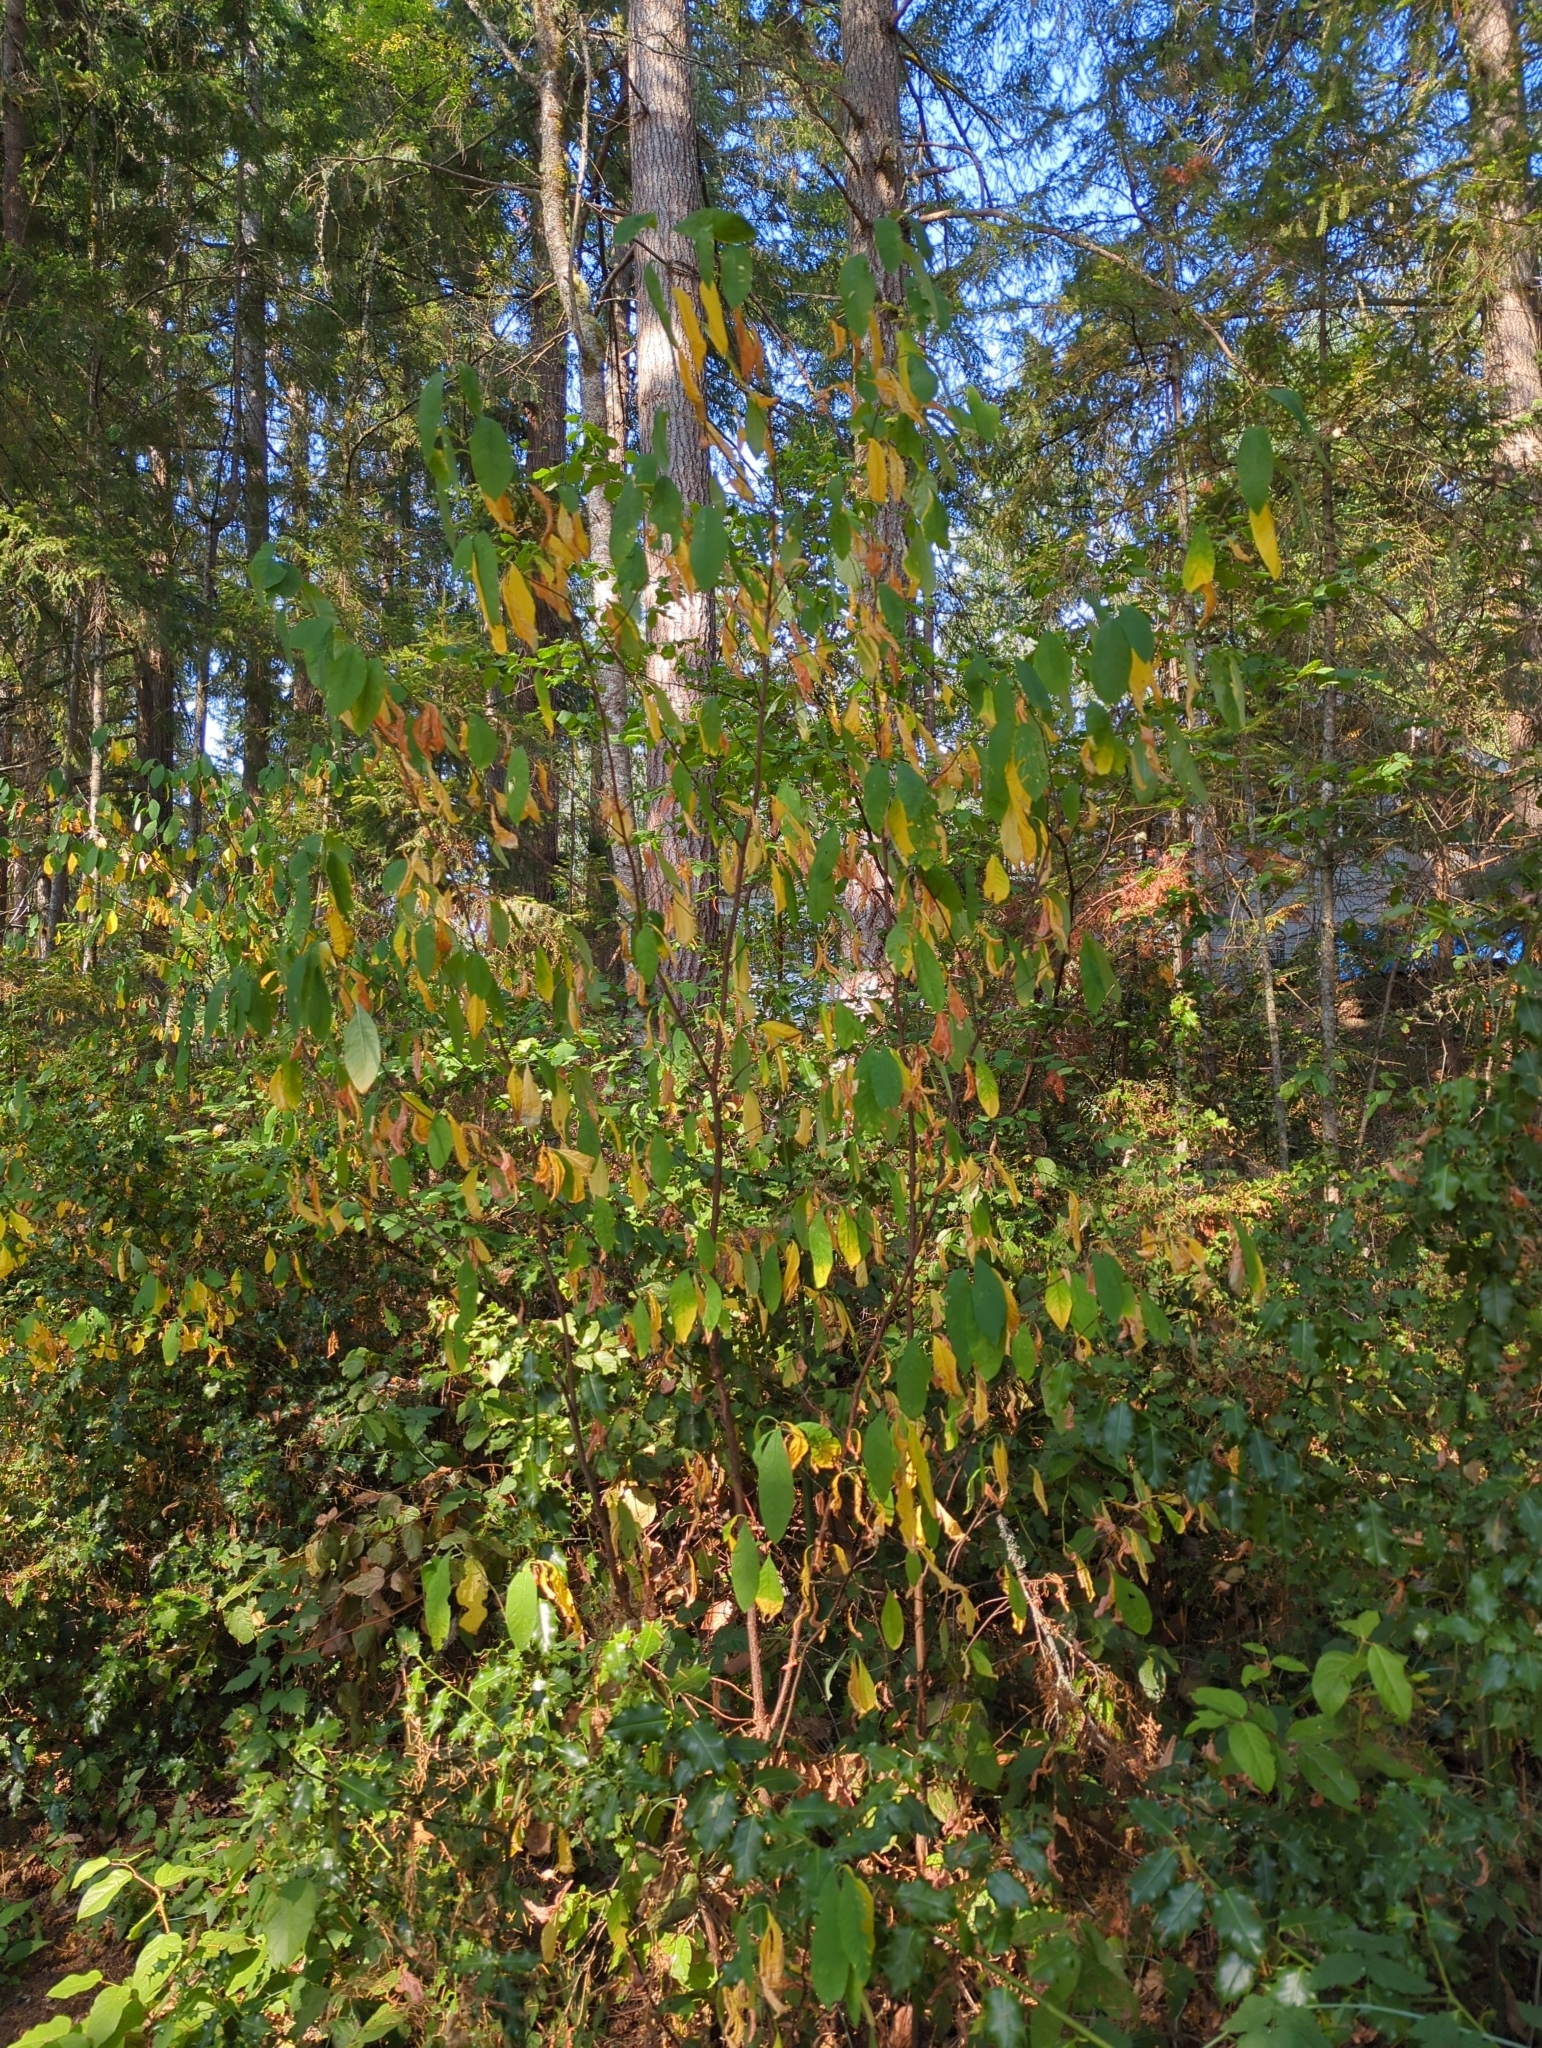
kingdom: Plantae
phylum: Tracheophyta
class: Magnoliopsida
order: Rosales
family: Rosaceae
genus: Oemleria
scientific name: Oemleria cerasiformis
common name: Osoberry
